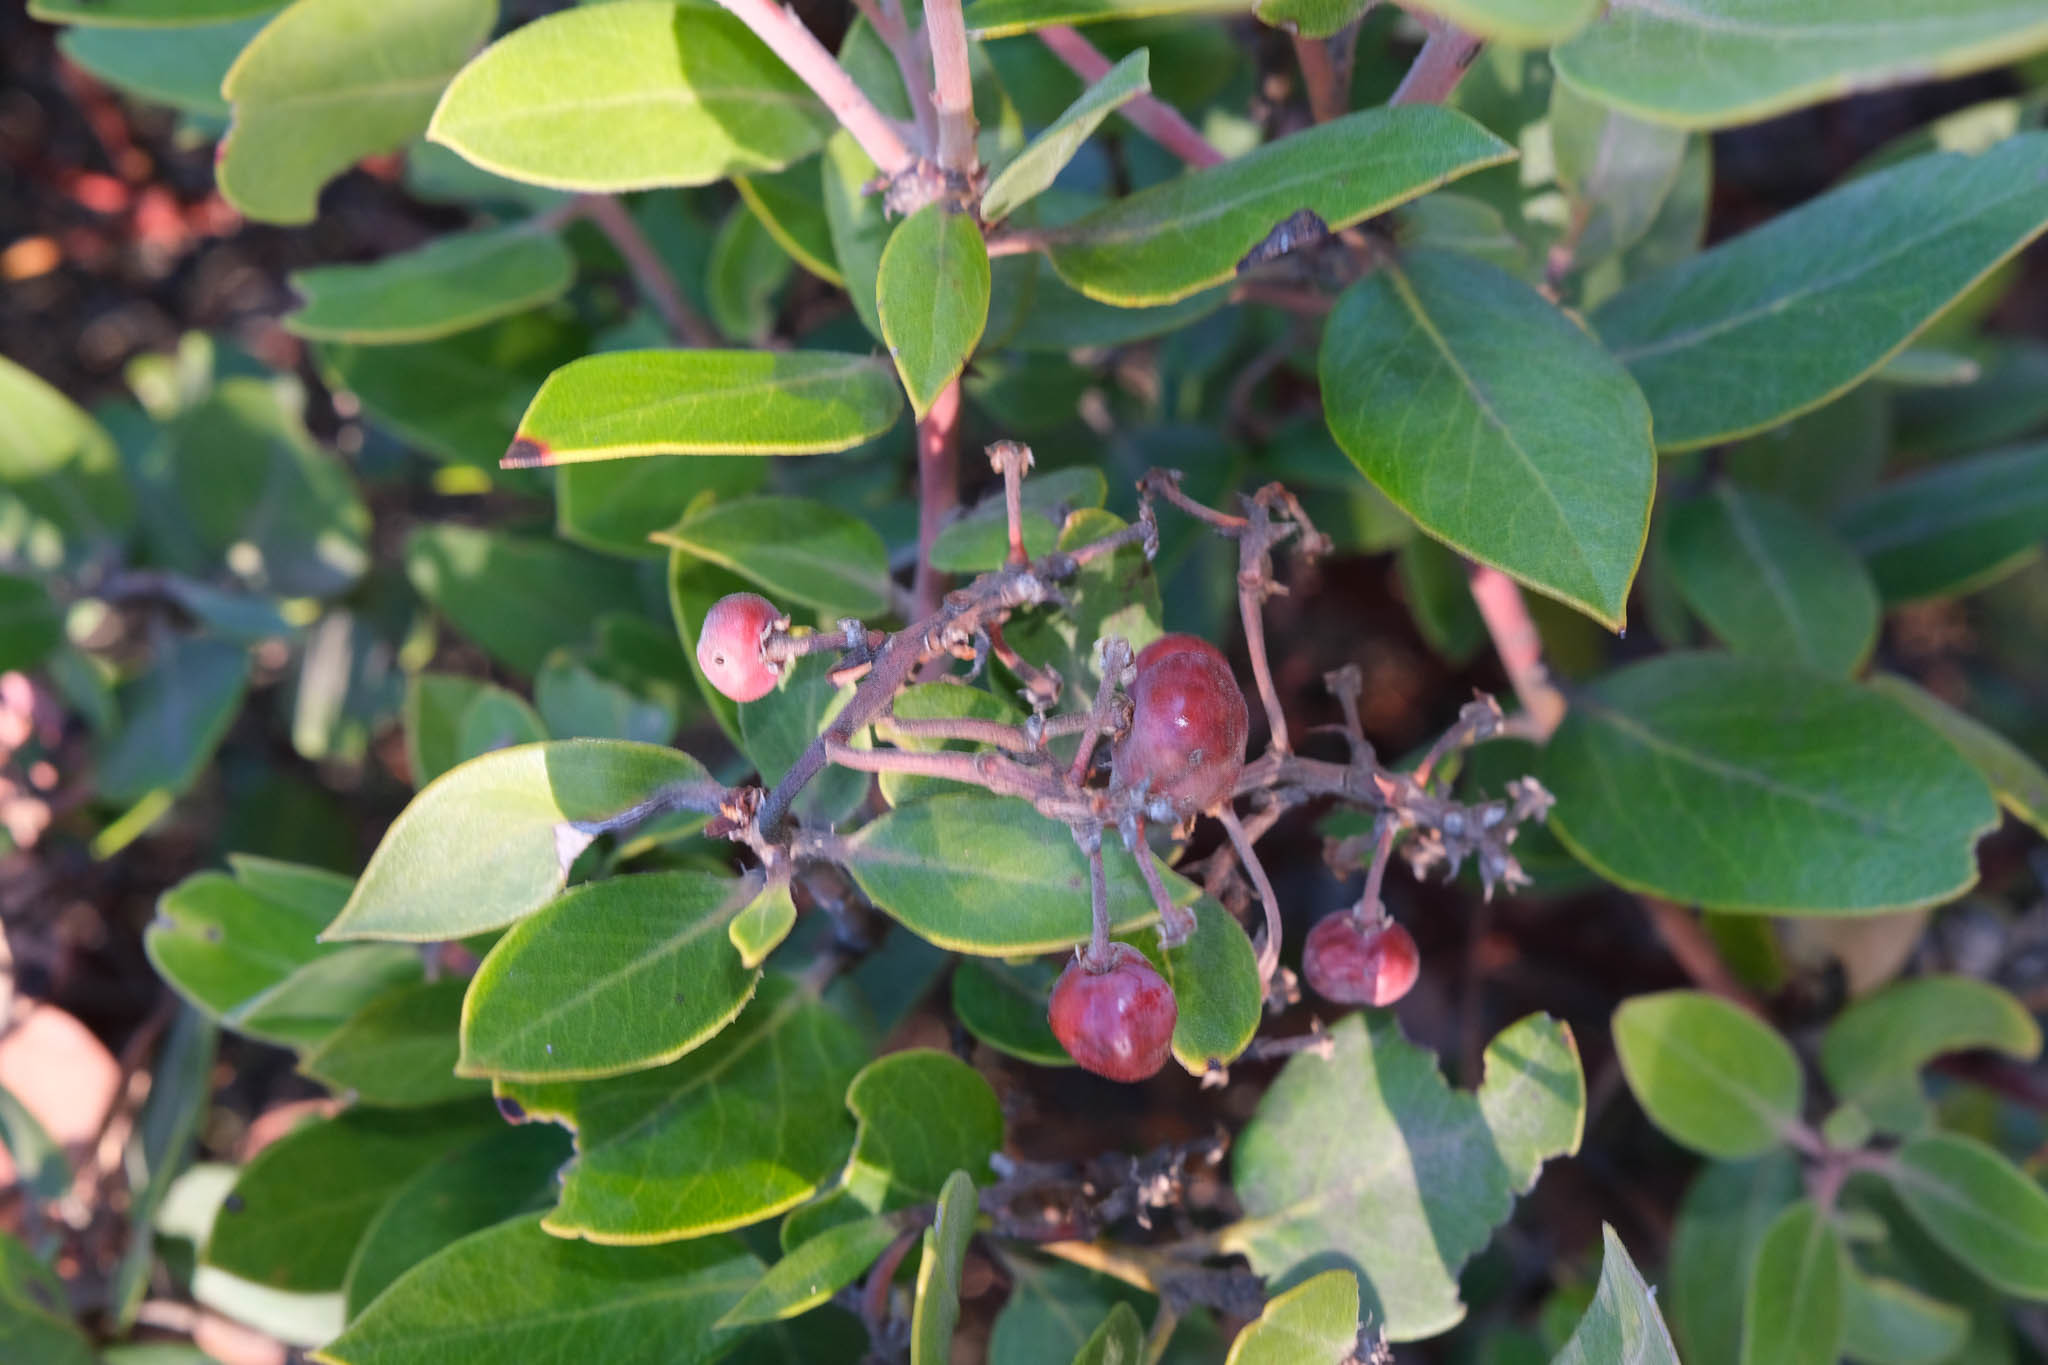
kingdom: Plantae
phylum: Tracheophyta
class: Magnoliopsida
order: Ericales
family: Ericaceae
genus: Arctostaphylos
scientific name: Arctostaphylos crustacea
